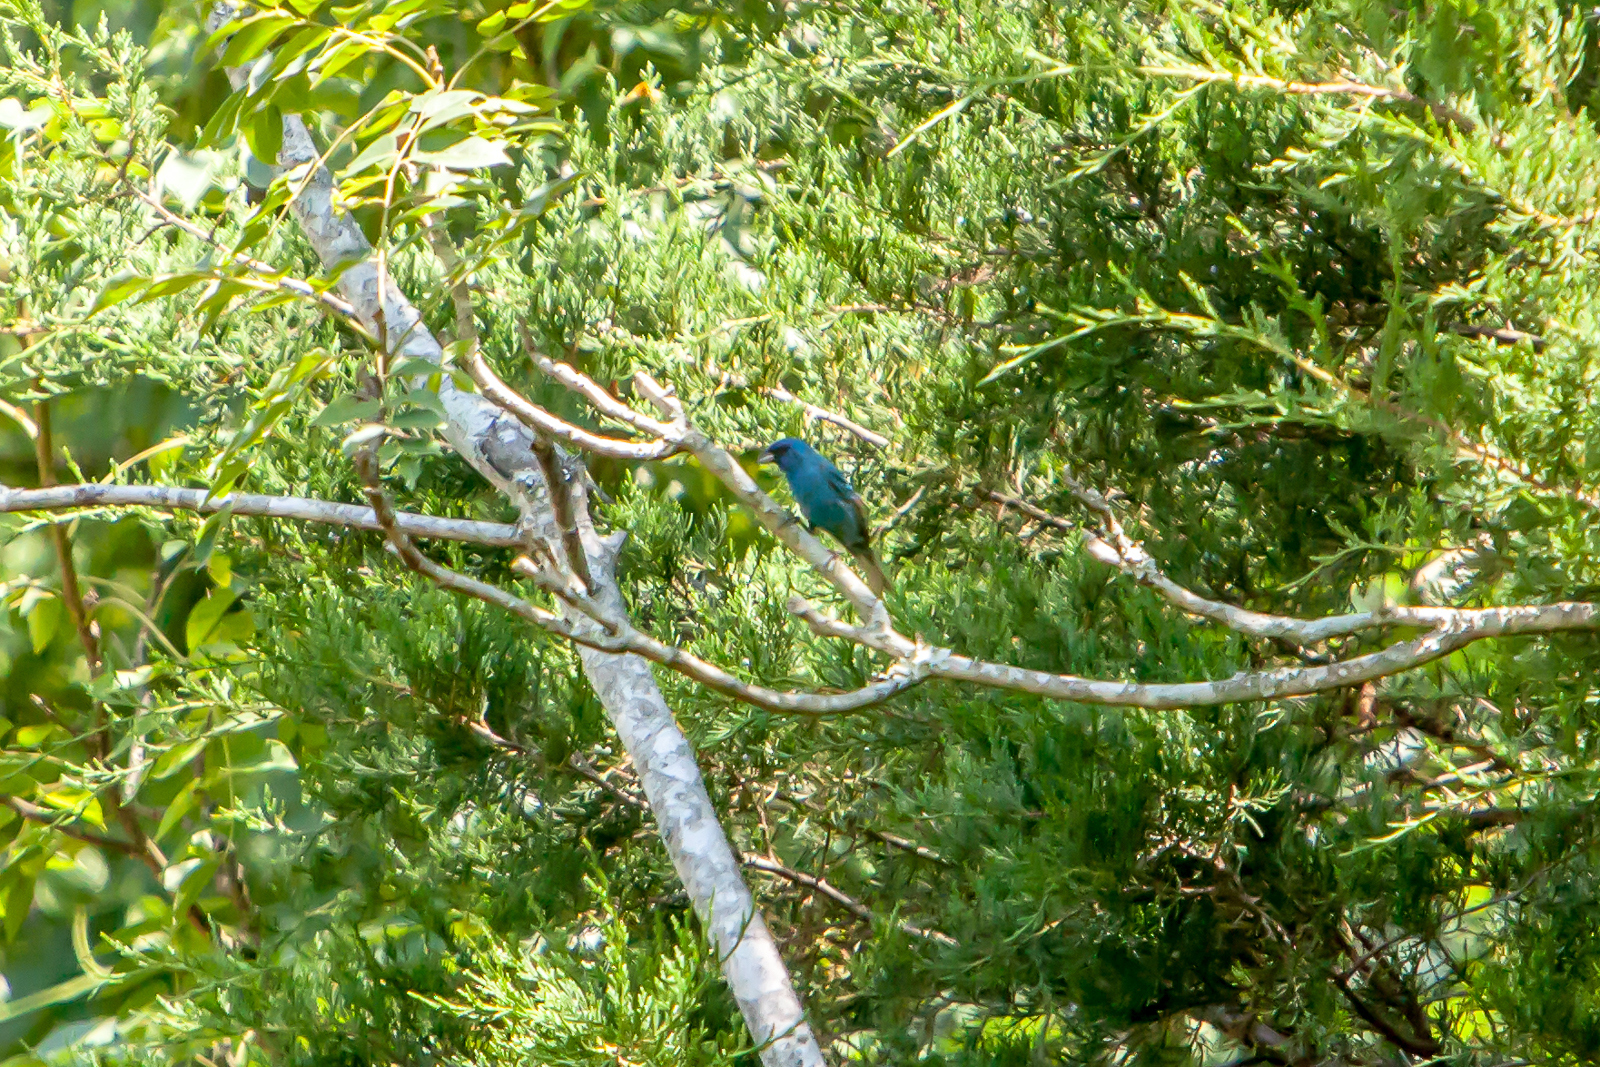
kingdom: Animalia
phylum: Chordata
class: Aves
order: Passeriformes
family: Cardinalidae
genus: Passerina
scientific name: Passerina cyanea
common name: Indigo bunting
